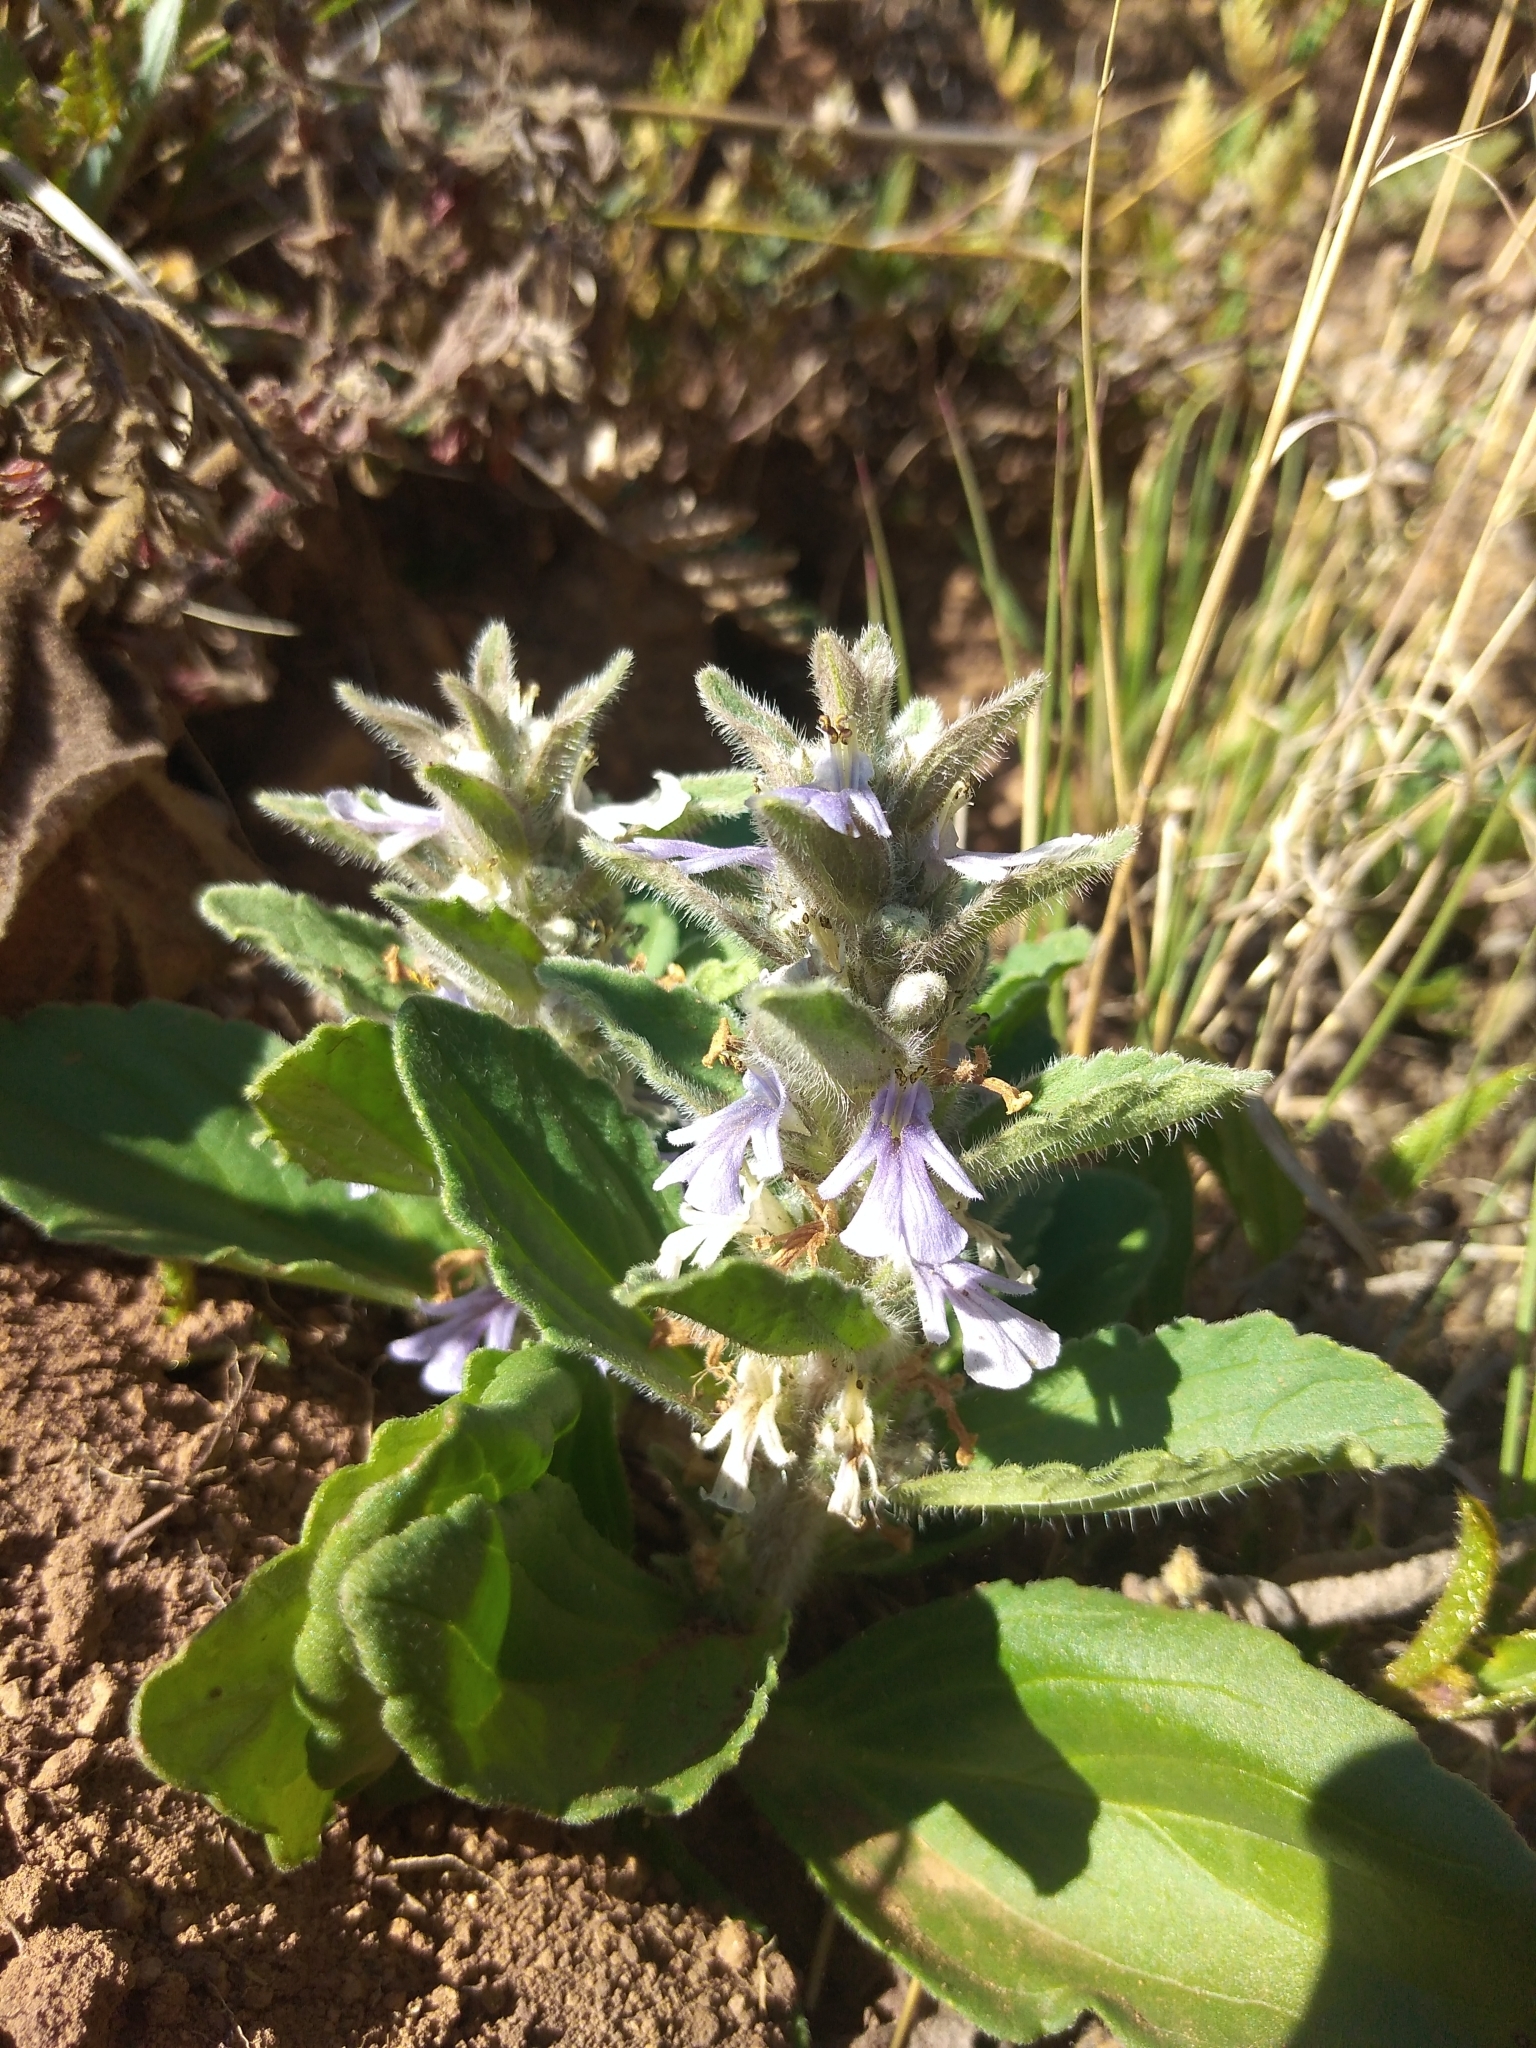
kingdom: Plantae
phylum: Tracheophyta
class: Magnoliopsida
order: Lamiales
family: Lamiaceae
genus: Ajuga
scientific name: Ajuga ophrydis
